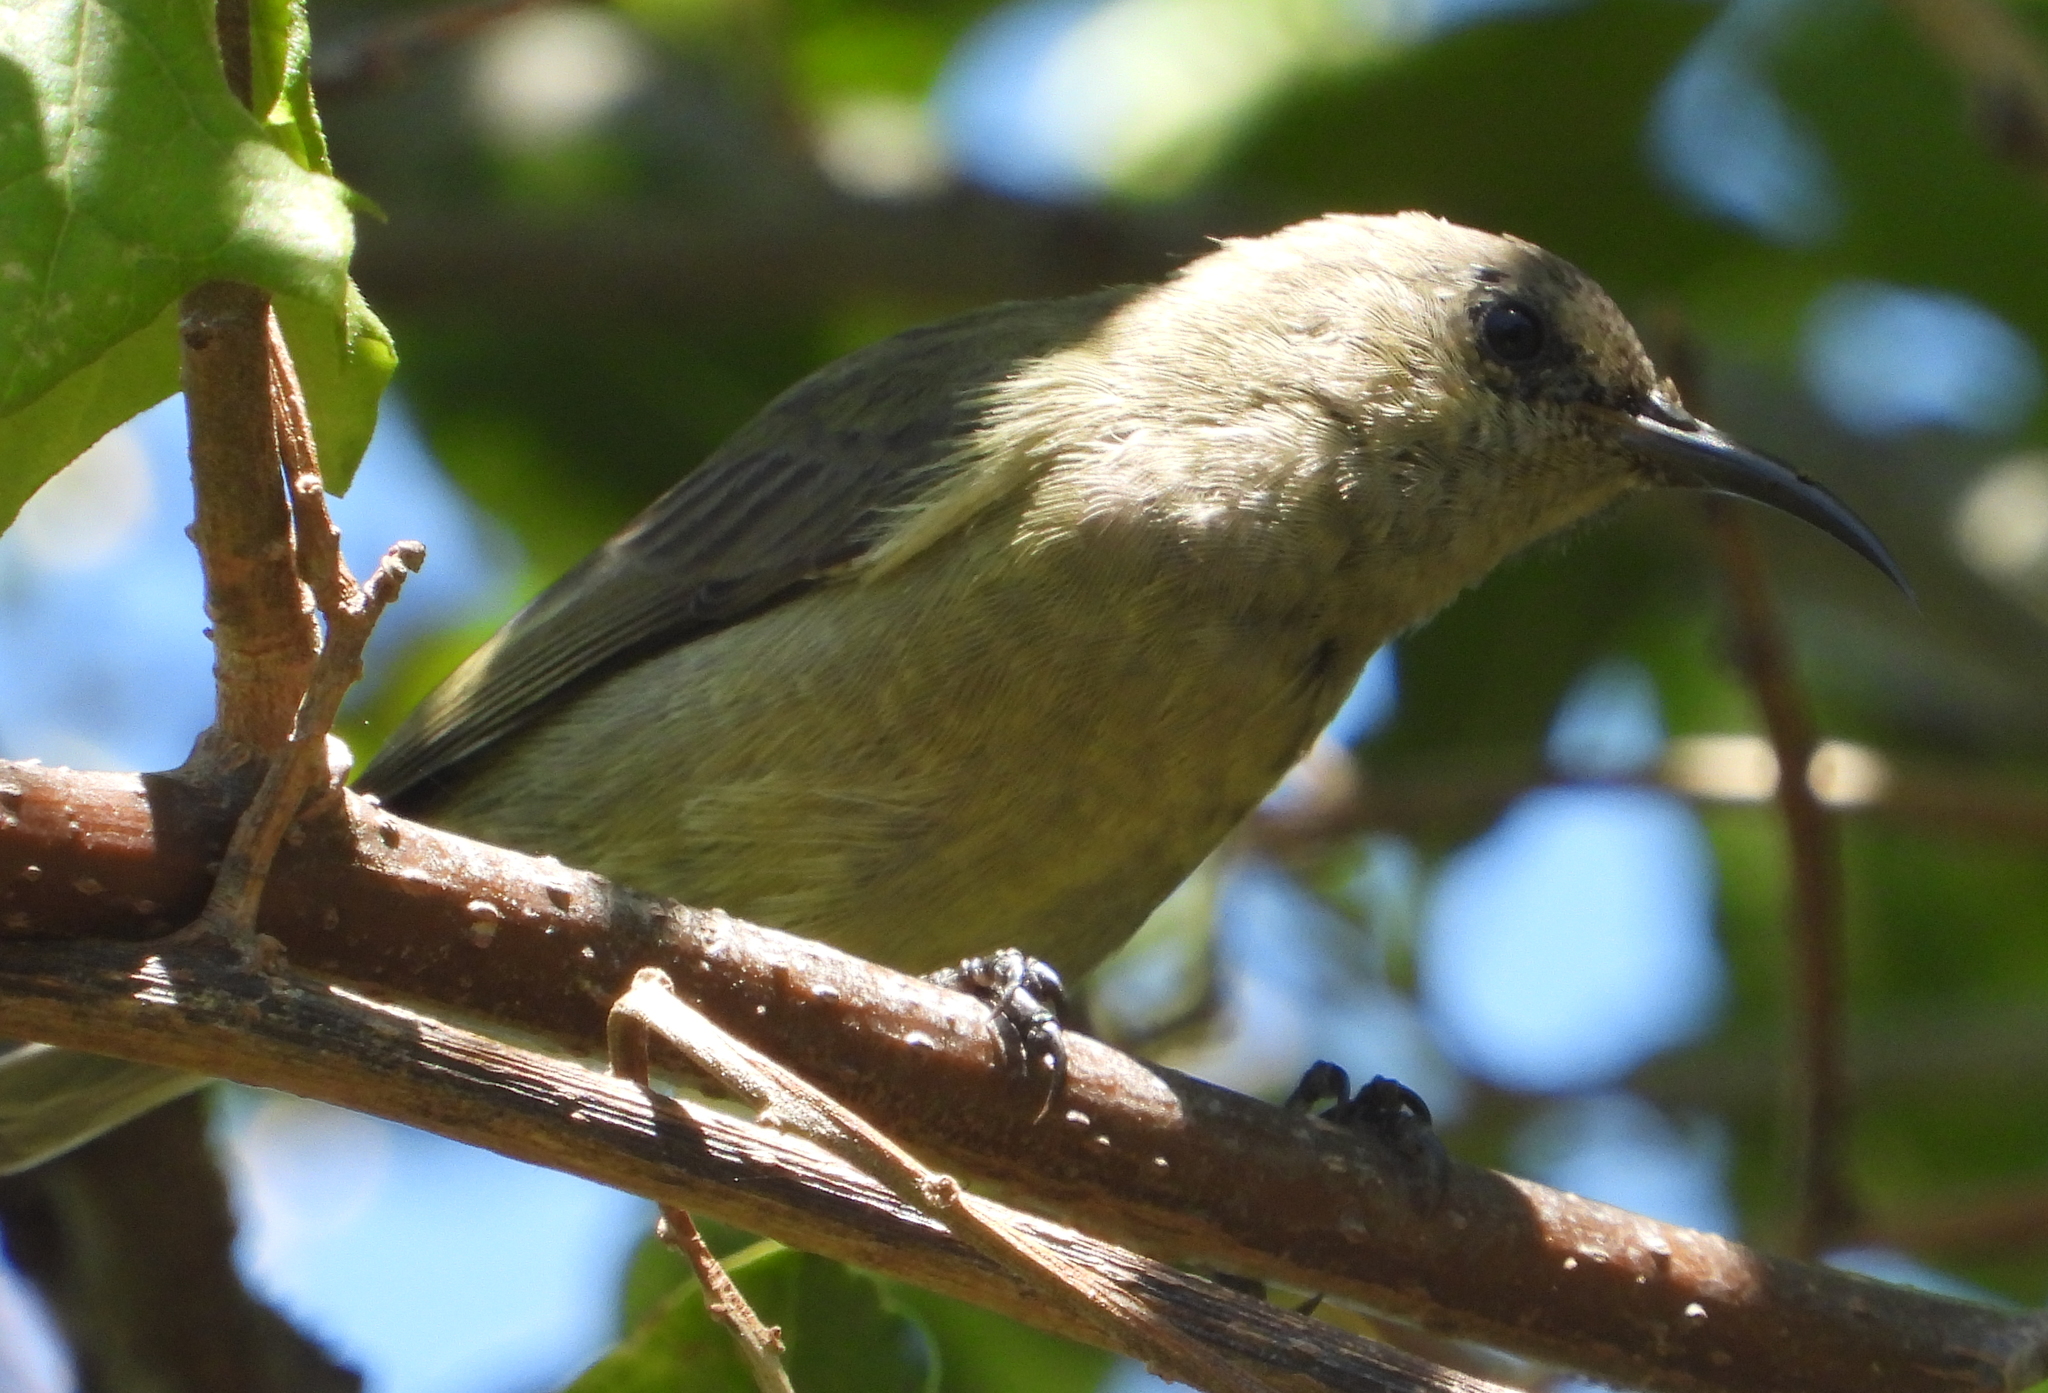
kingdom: Animalia
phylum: Chordata
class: Aves
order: Passeriformes
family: Nectariniidae
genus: Cinnyris
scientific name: Cinnyris chalybeus
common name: Southern double-collared sunbird
